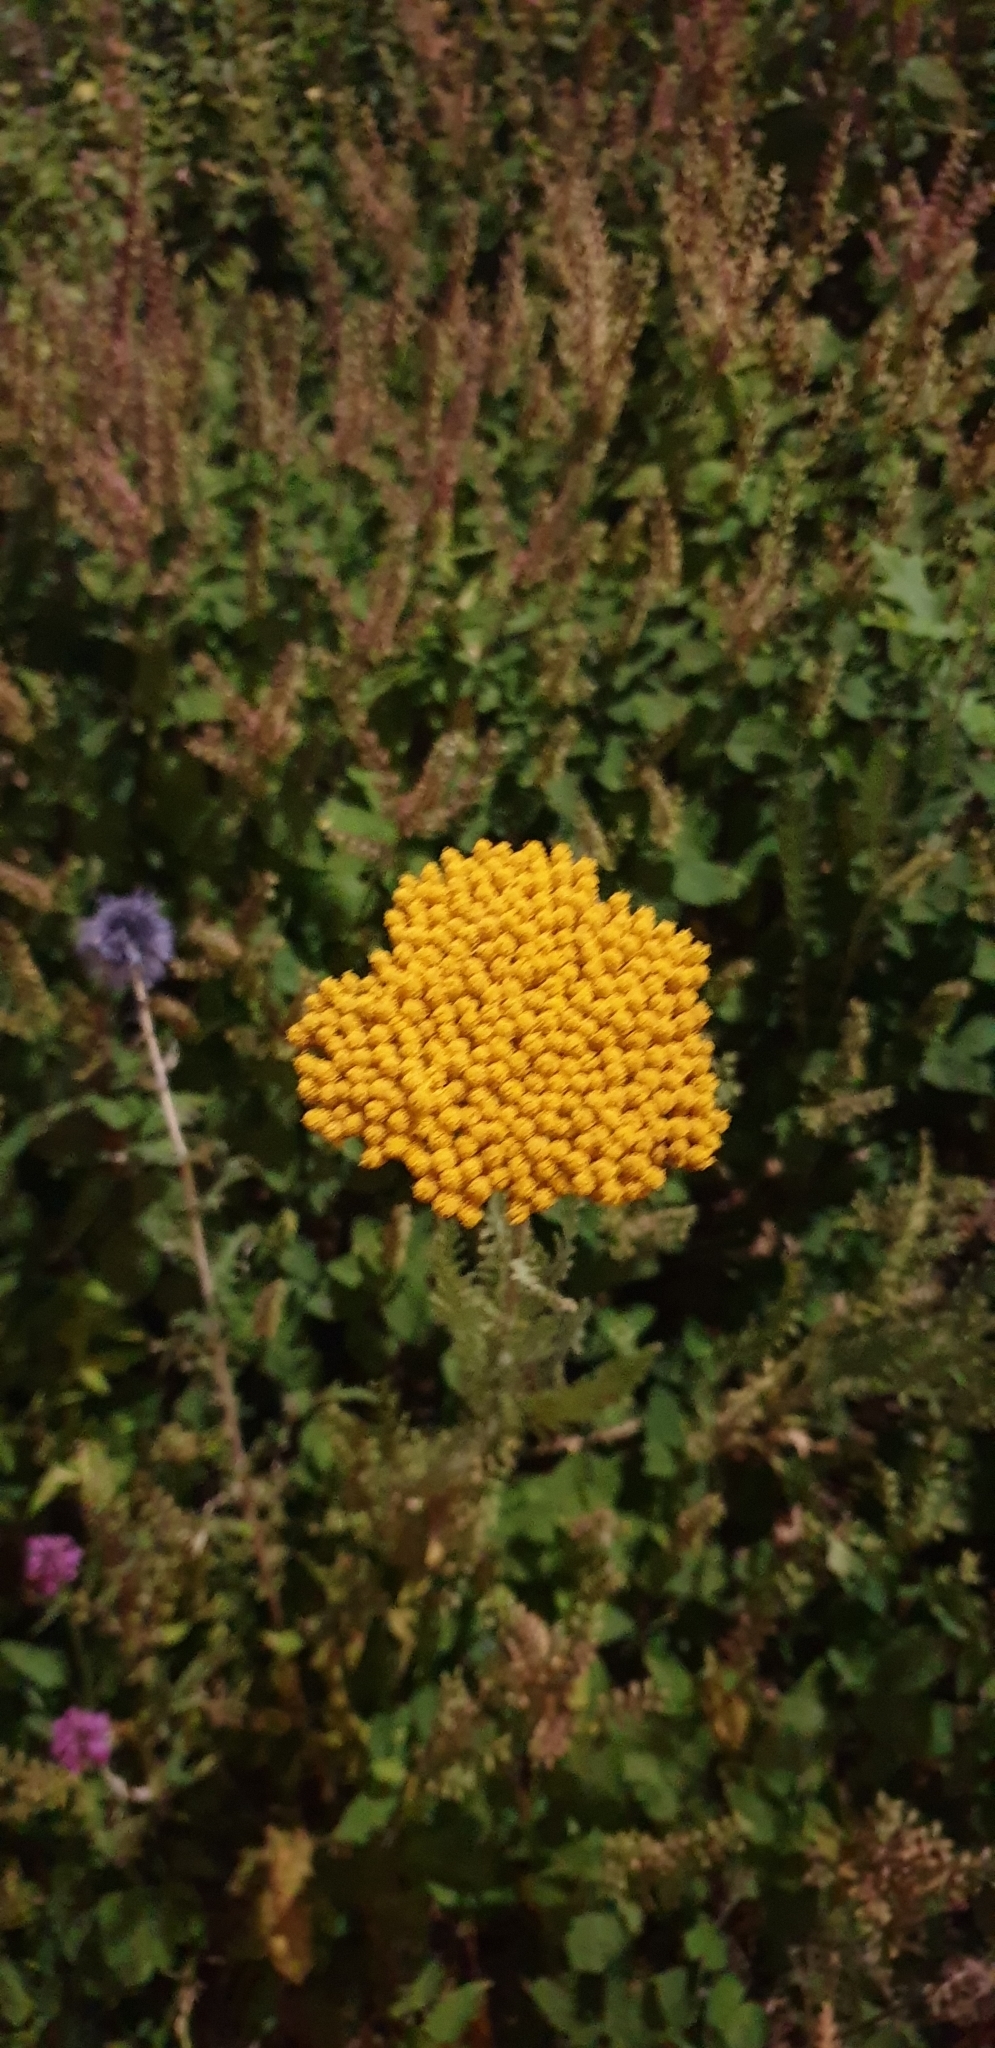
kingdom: Plantae
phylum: Tracheophyta
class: Magnoliopsida
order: Asterales
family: Asteraceae
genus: Tanacetum
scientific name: Tanacetum vulgare
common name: Common tansy
